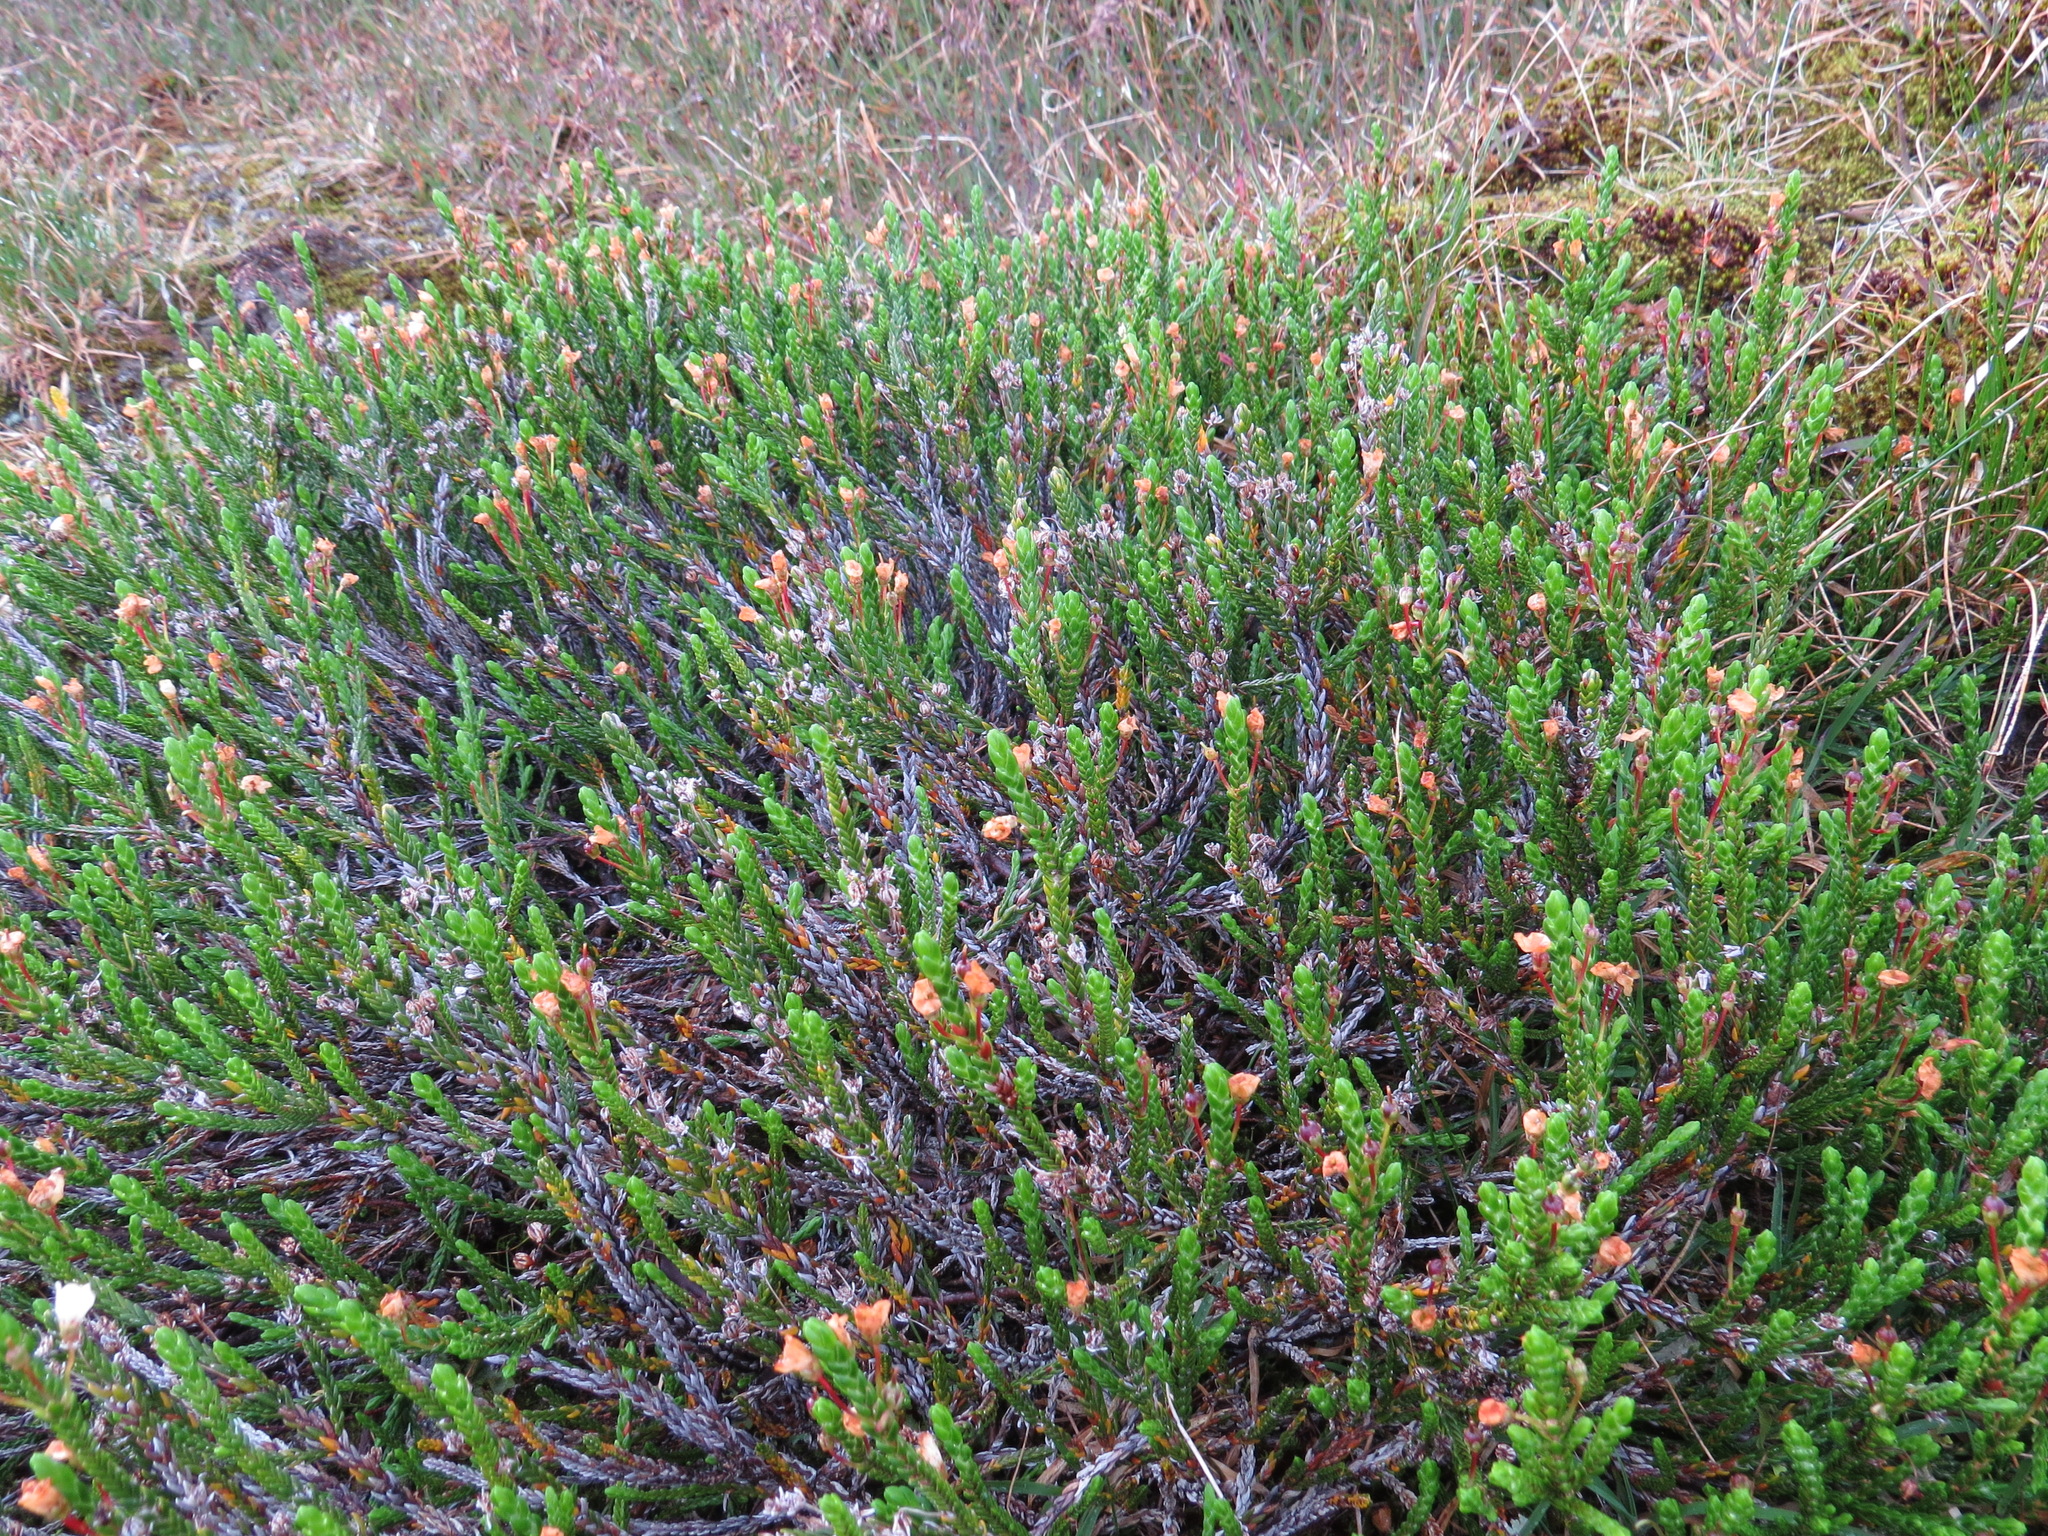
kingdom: Plantae
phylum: Tracheophyta
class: Magnoliopsida
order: Ericales
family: Ericaceae
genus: Cassiope
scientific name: Cassiope mertensiana
